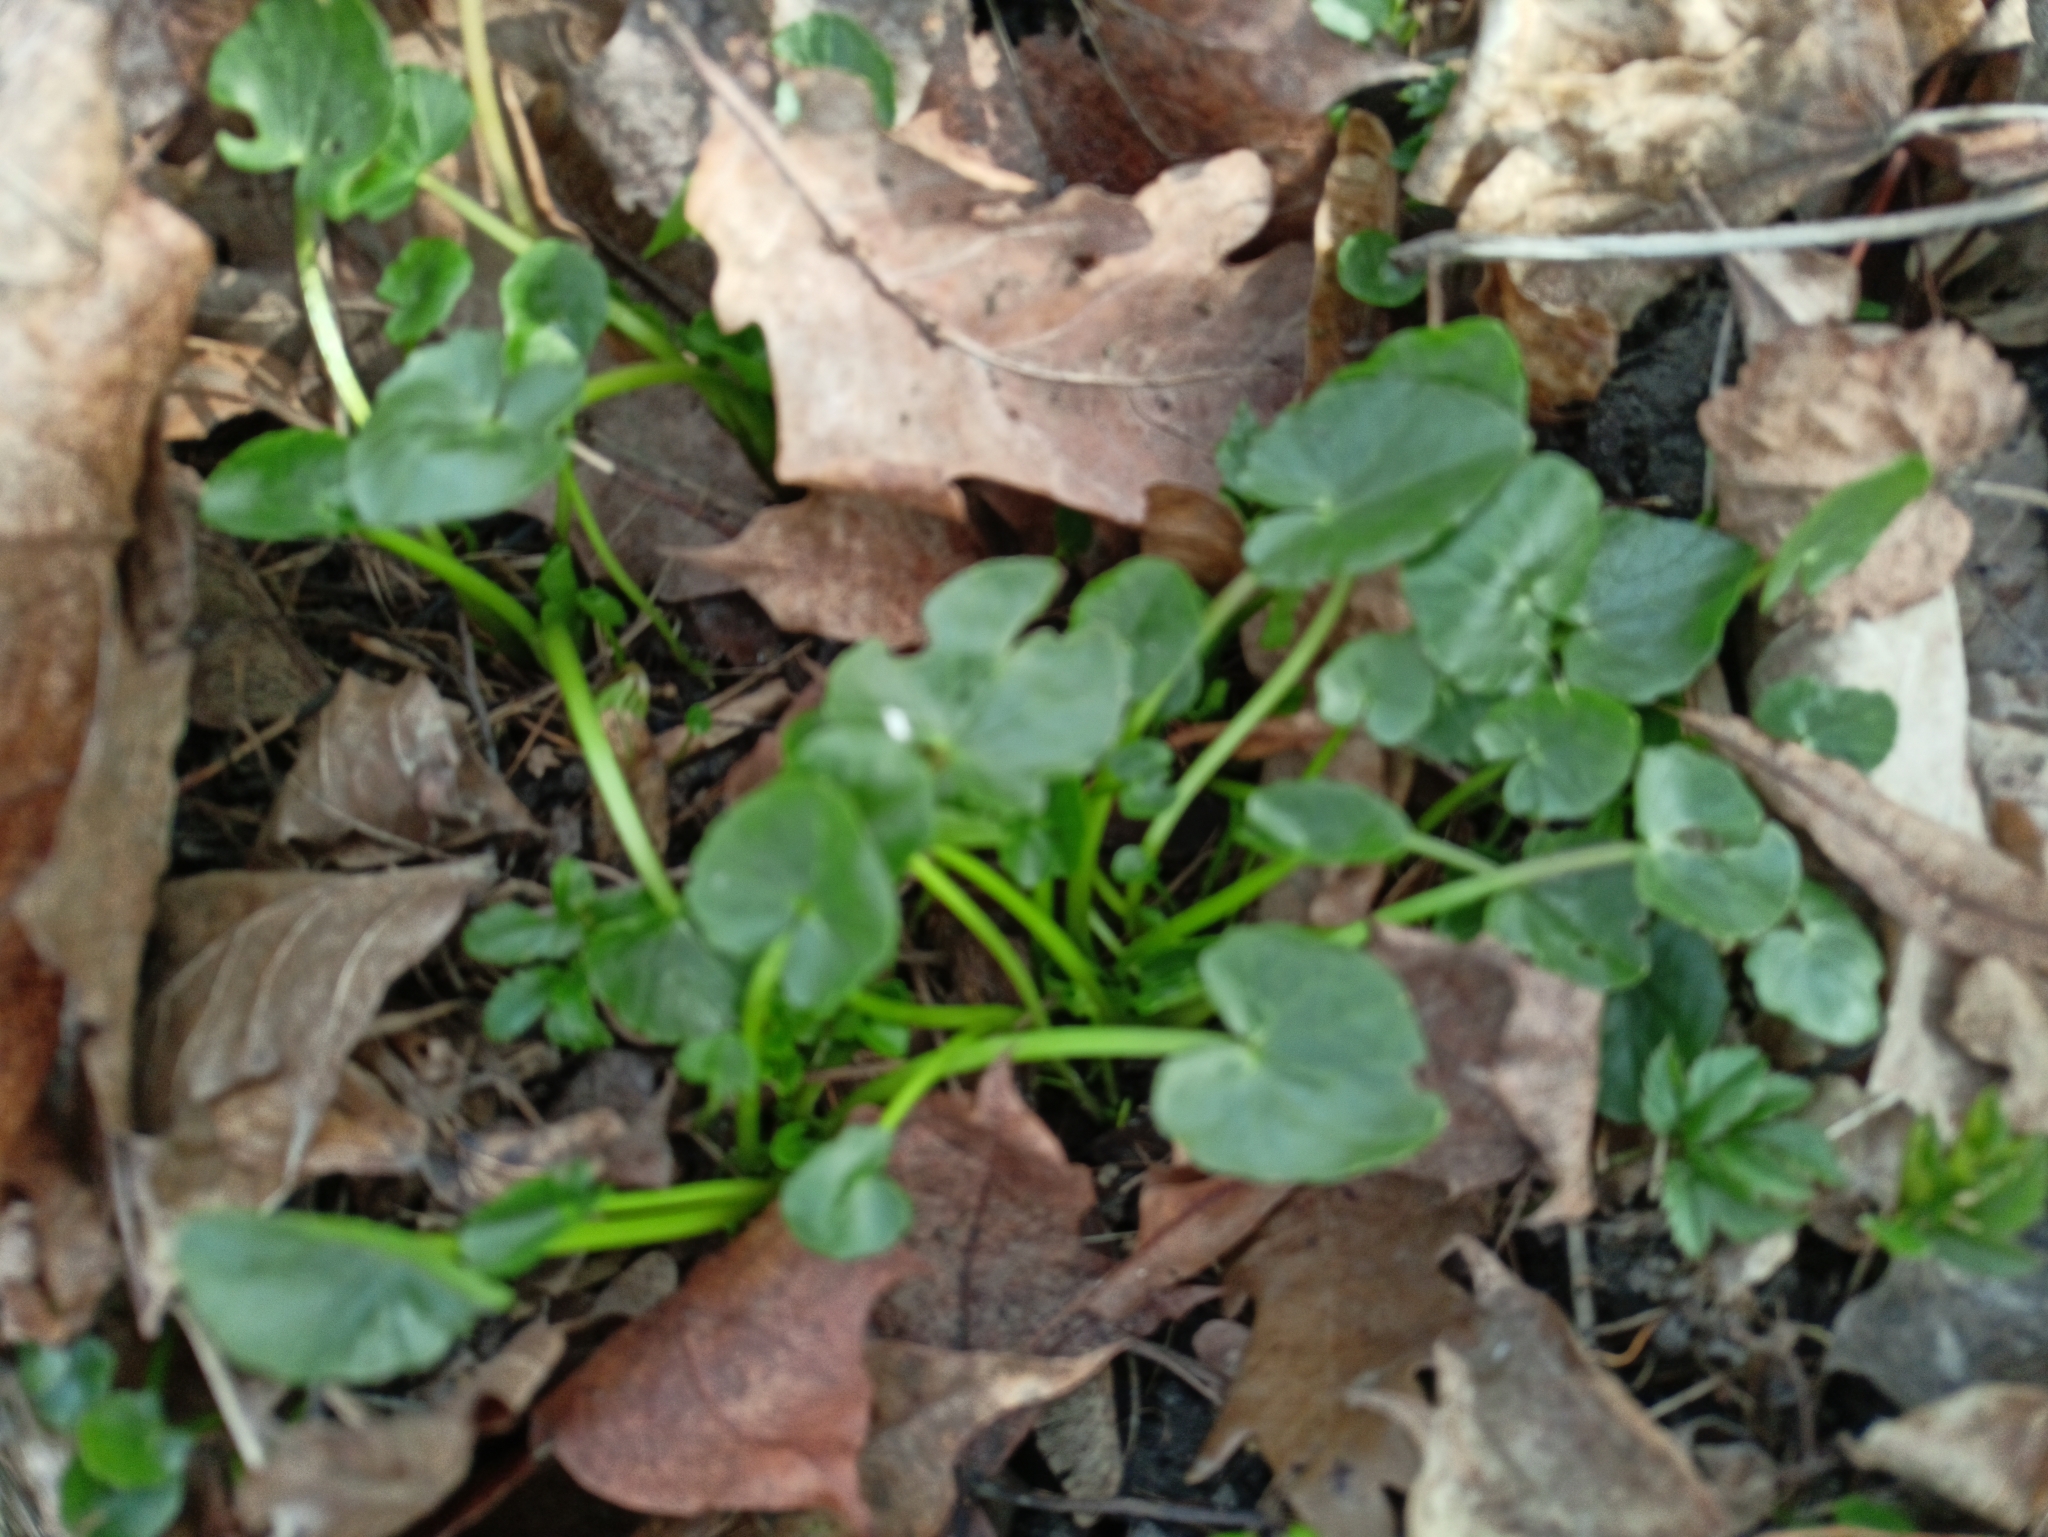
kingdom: Plantae
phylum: Tracheophyta
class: Magnoliopsida
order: Ranunculales
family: Ranunculaceae
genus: Ficaria
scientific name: Ficaria verna
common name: Lesser celandine
